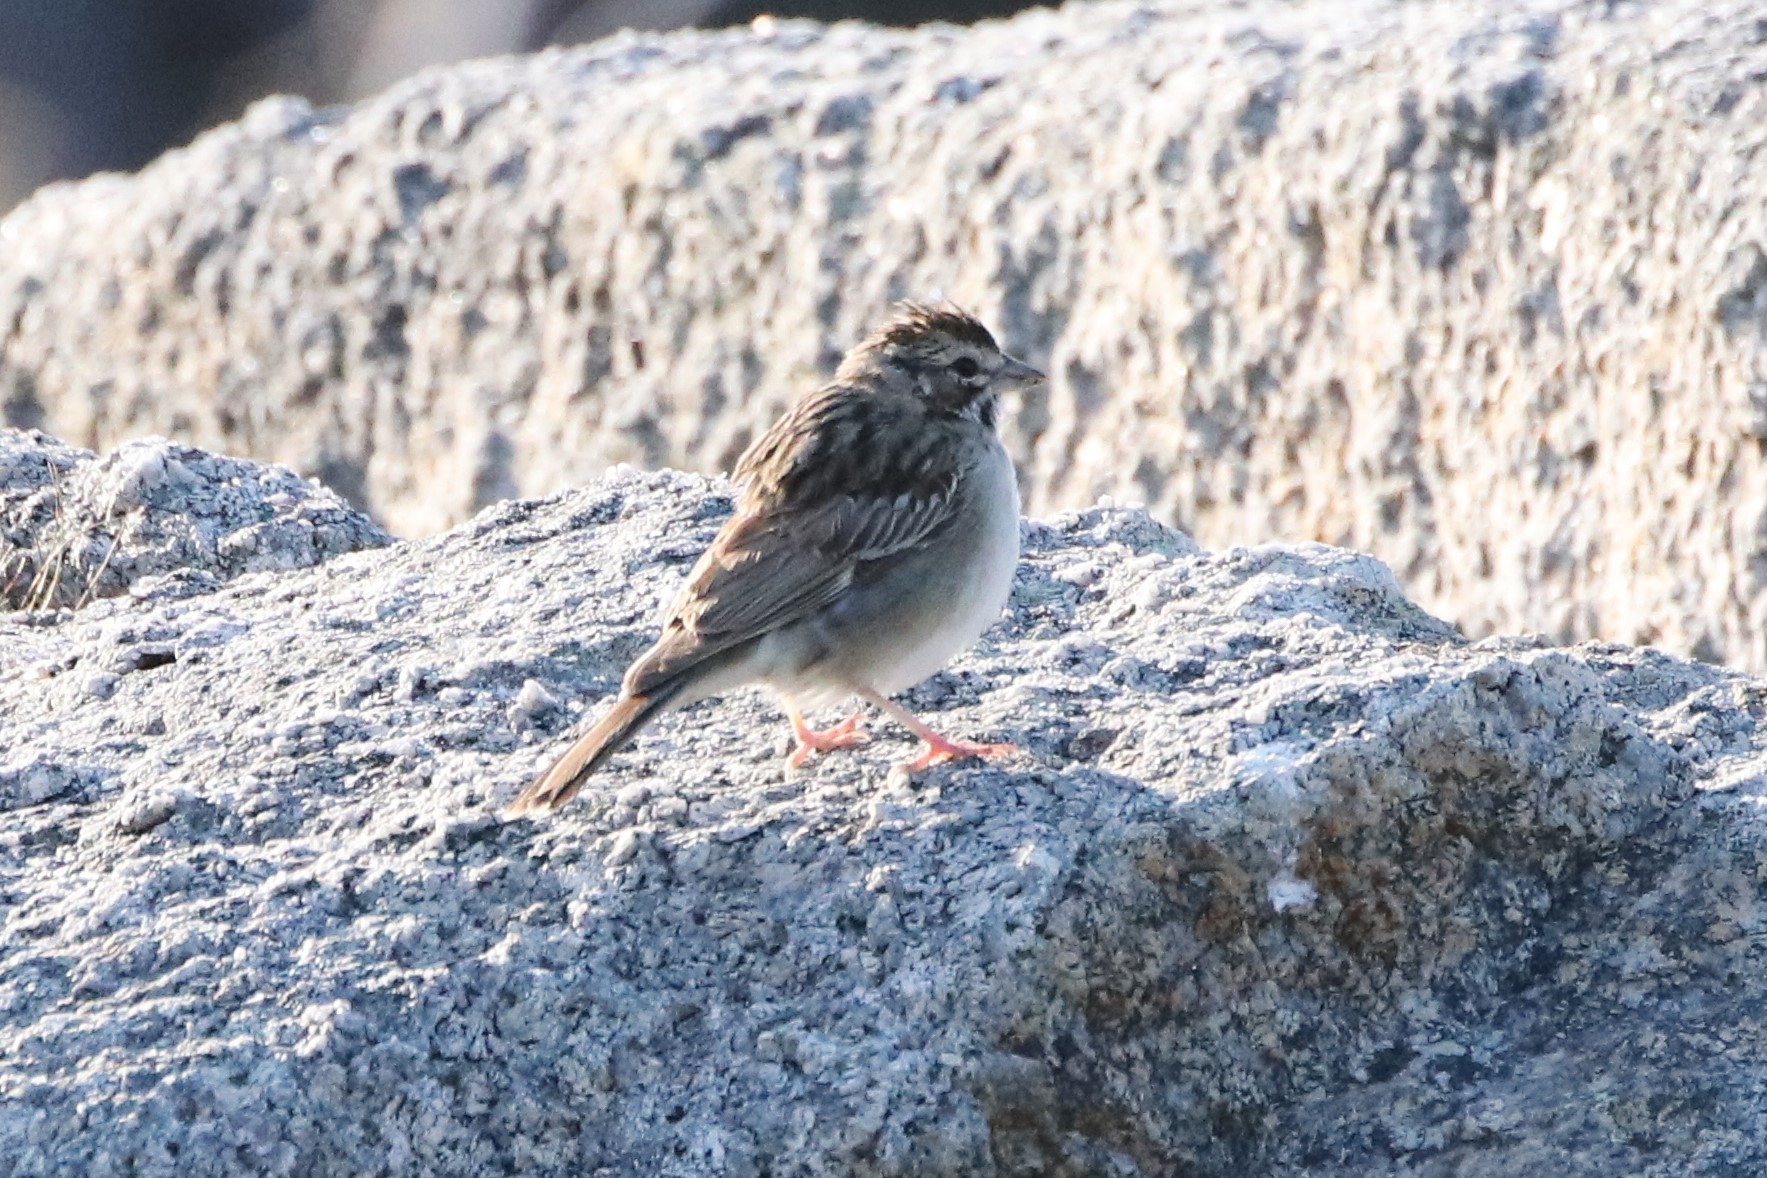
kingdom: Animalia
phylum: Chordata
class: Aves
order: Passeriformes
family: Passerellidae
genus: Chondestes
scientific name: Chondestes grammacus
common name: Lark sparrow
